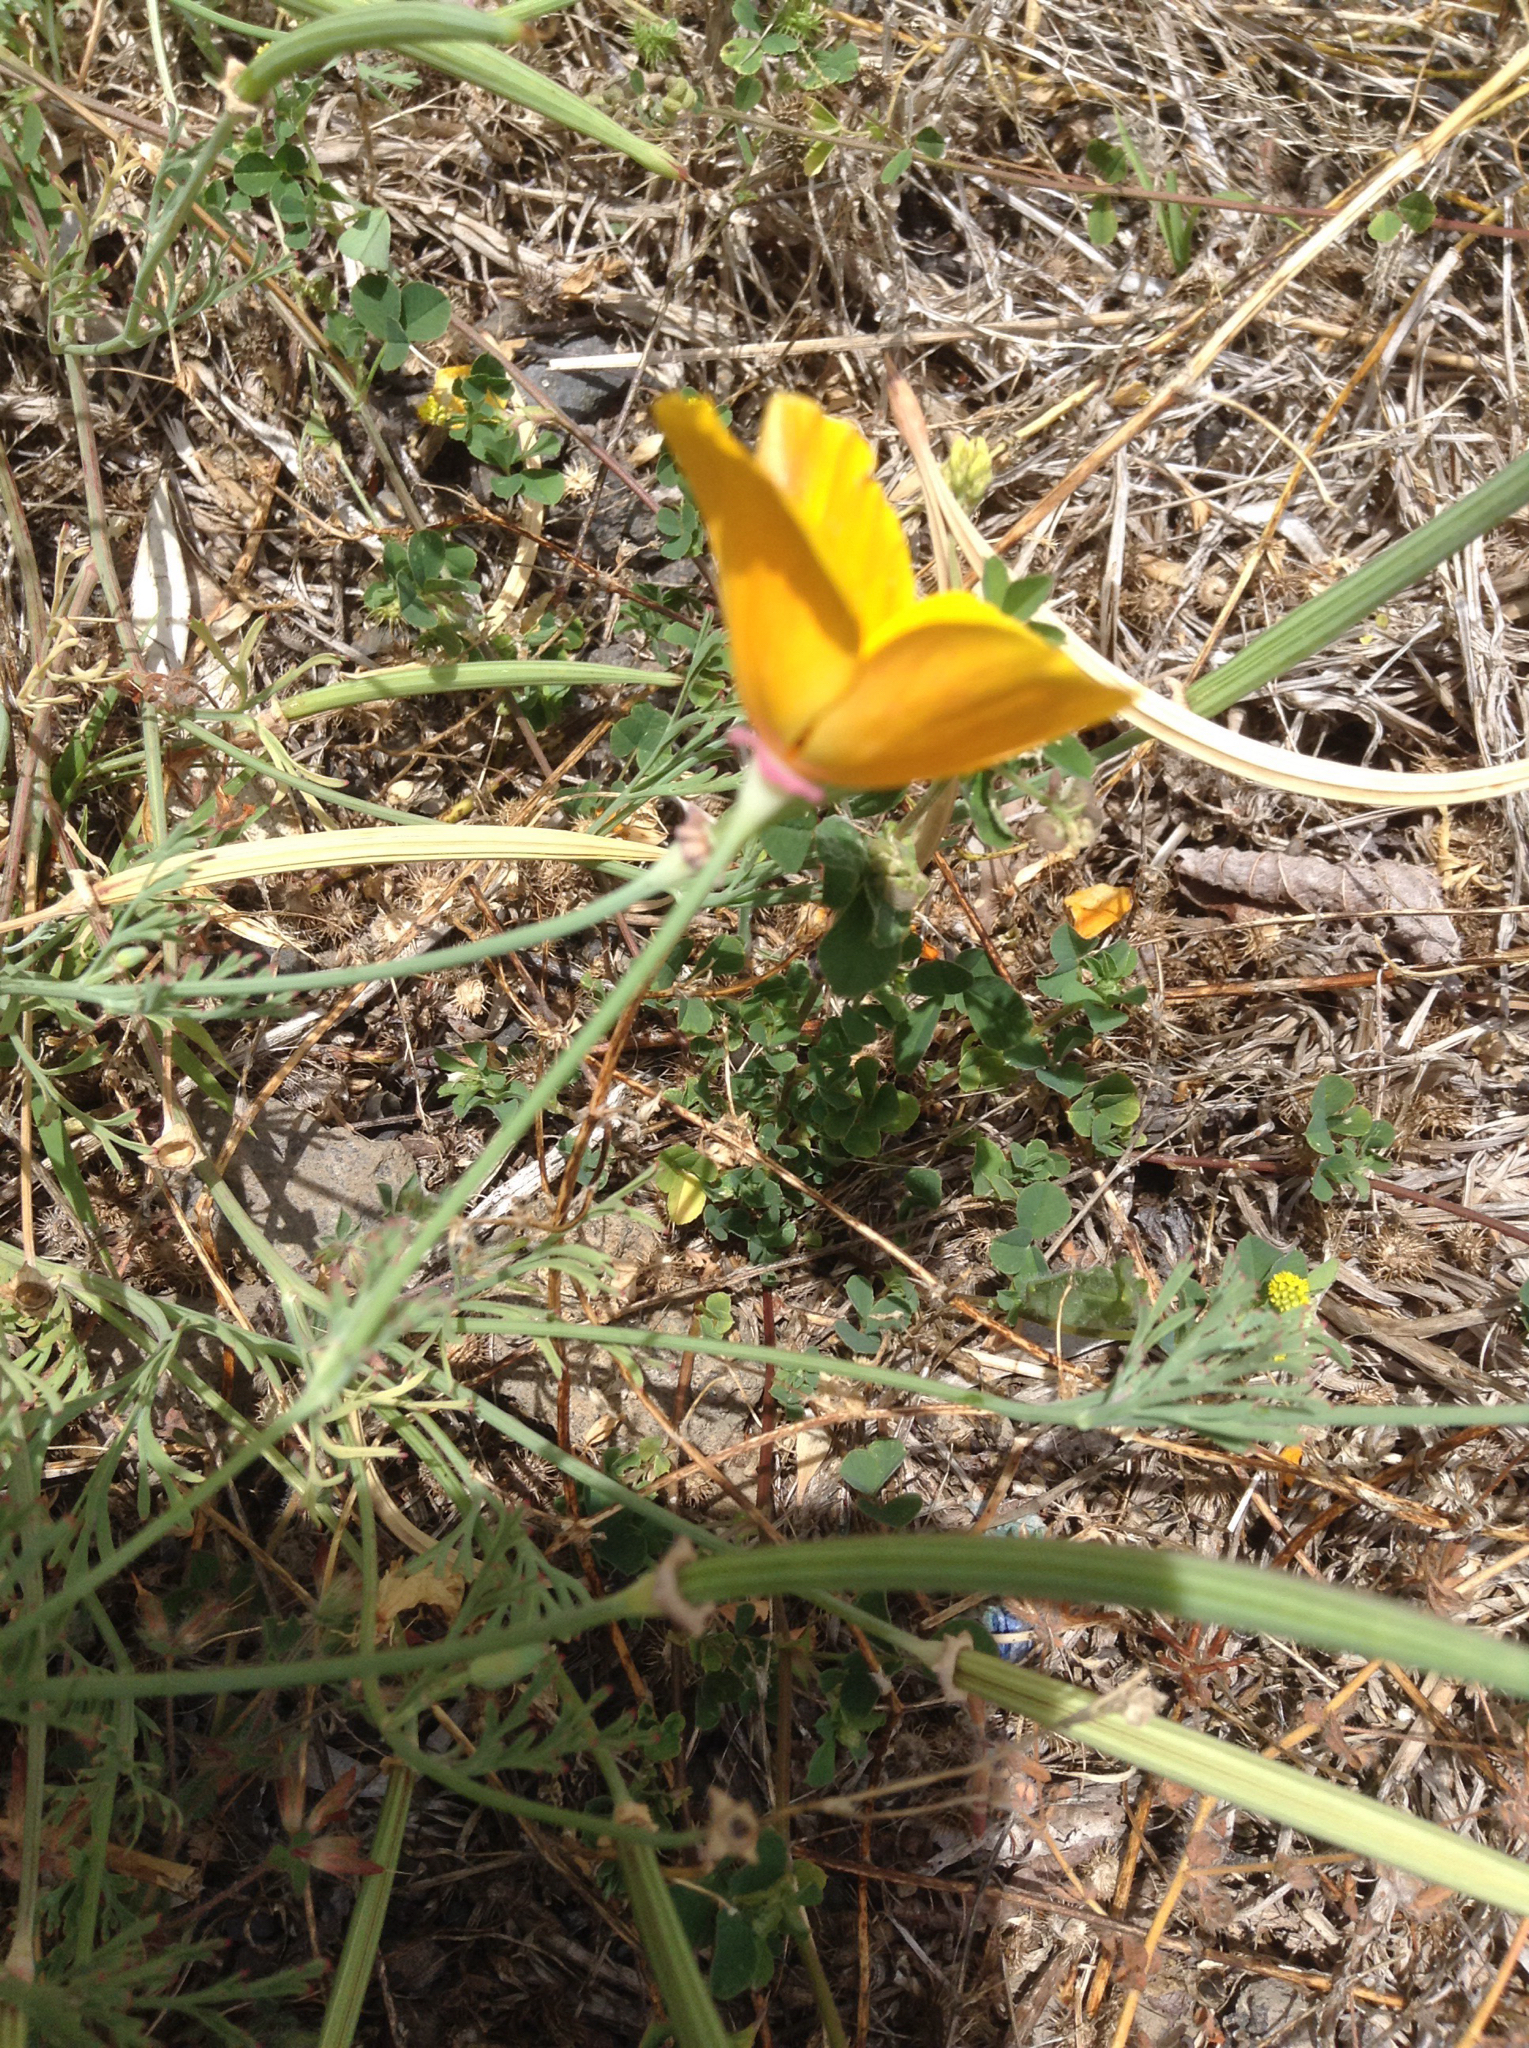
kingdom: Plantae
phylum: Tracheophyta
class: Magnoliopsida
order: Ranunculales
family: Papaveraceae
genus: Eschscholzia
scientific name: Eschscholzia californica
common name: California poppy
